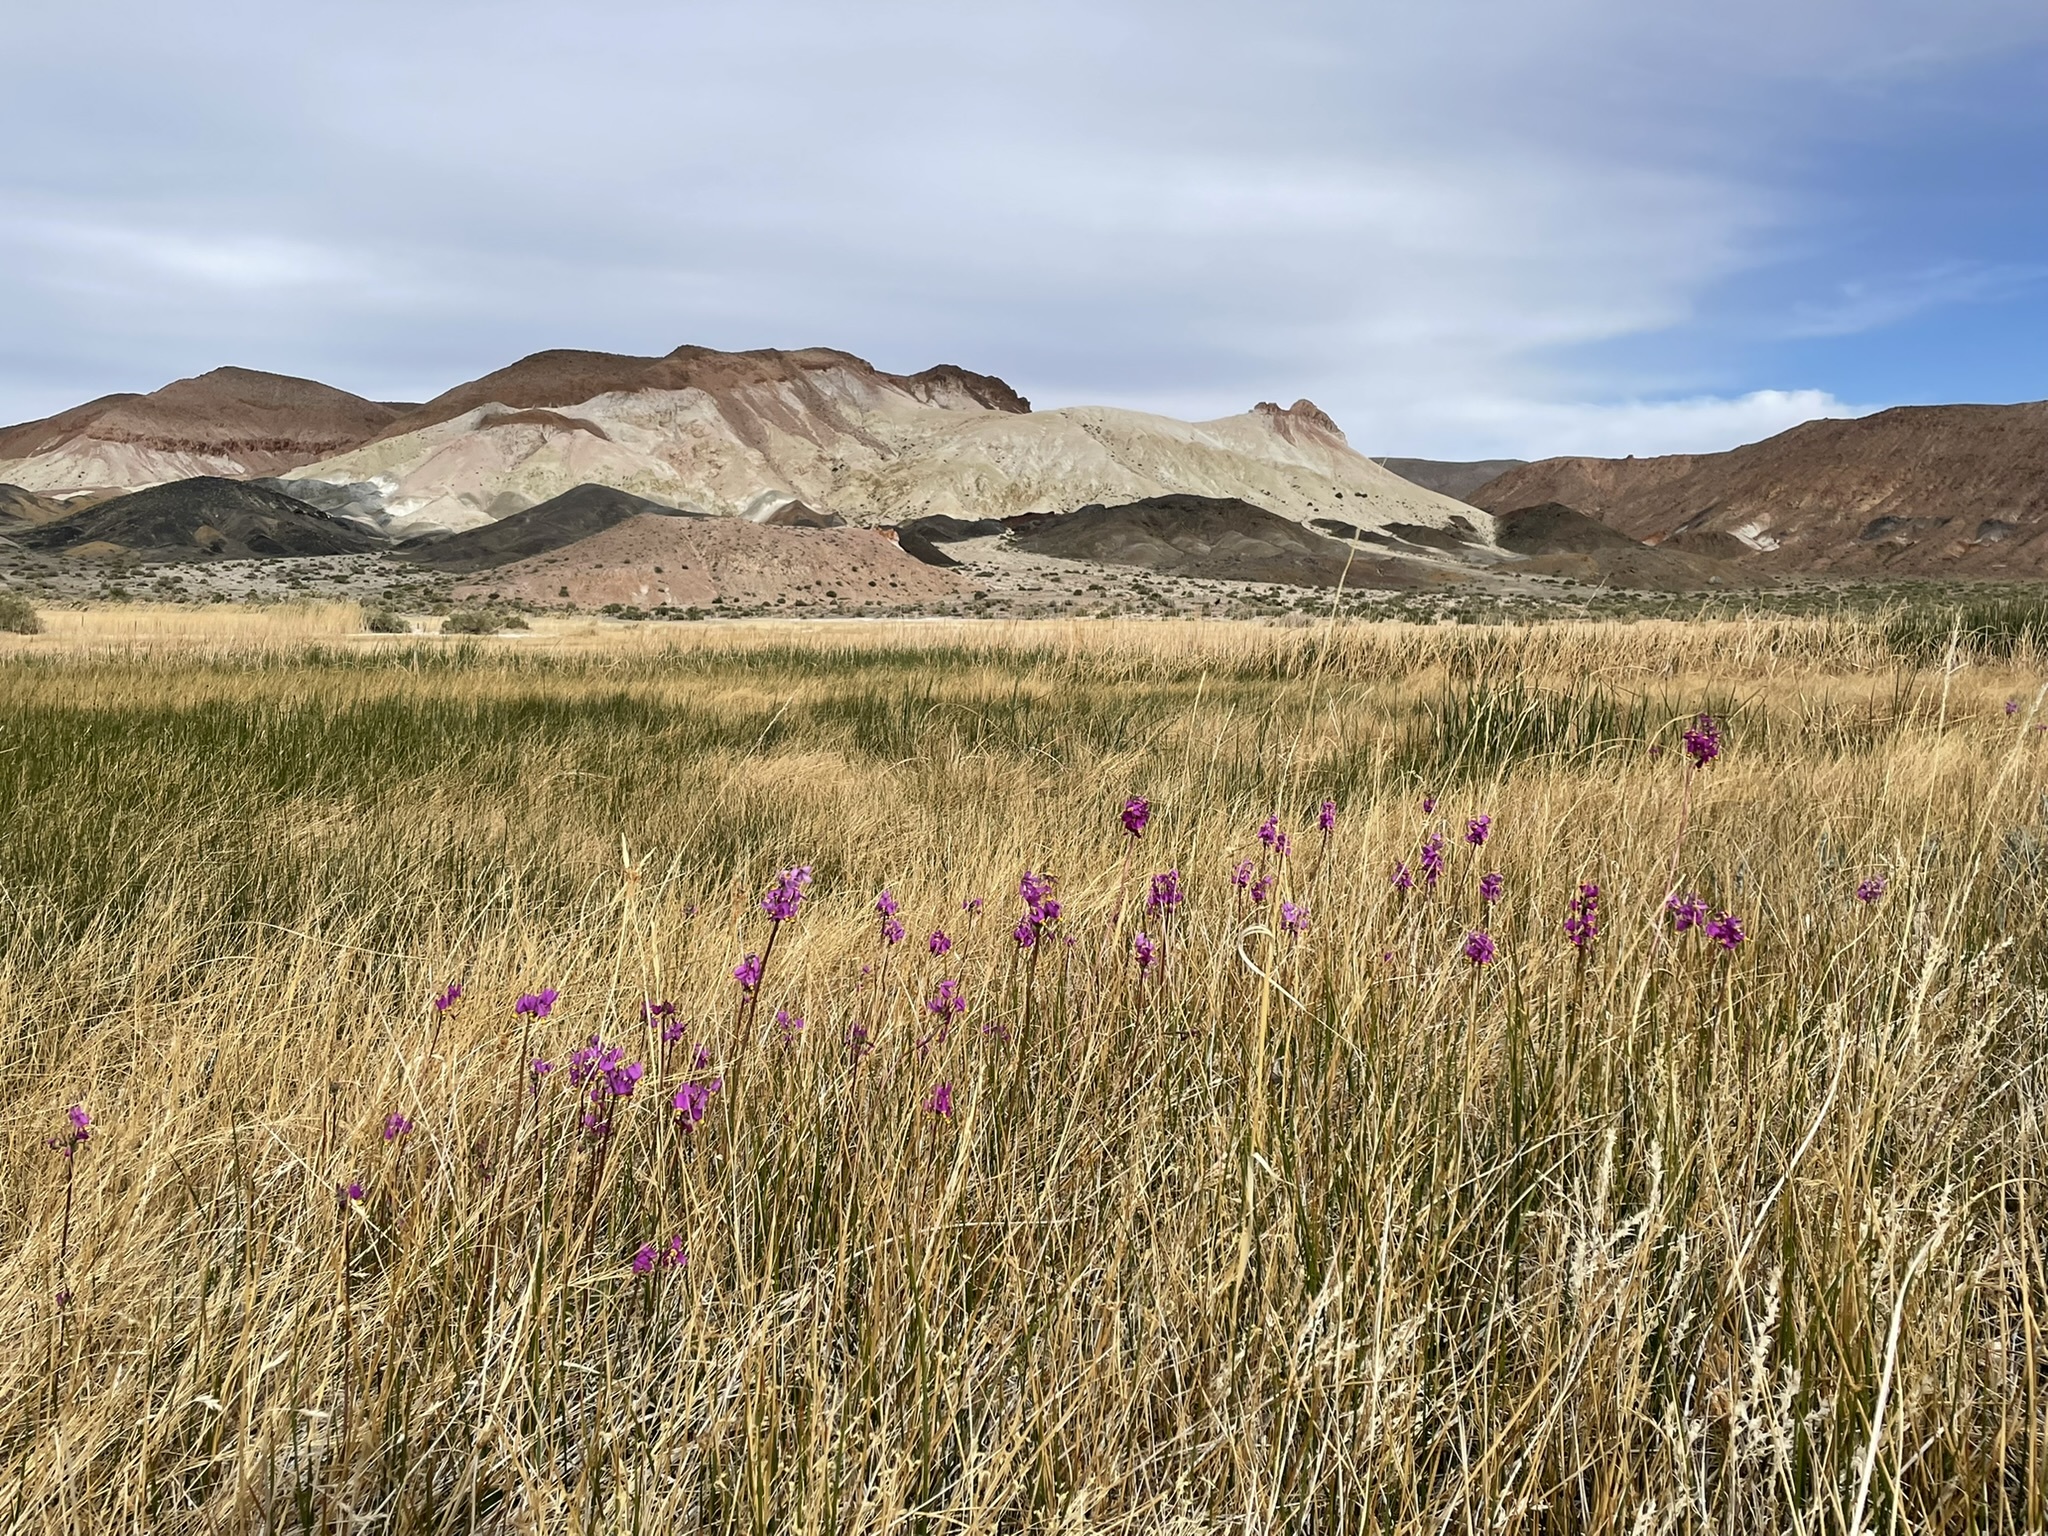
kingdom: Plantae
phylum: Tracheophyta
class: Magnoliopsida
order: Ericales
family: Primulaceae
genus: Dodecatheon
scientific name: Dodecatheon pulchellum
